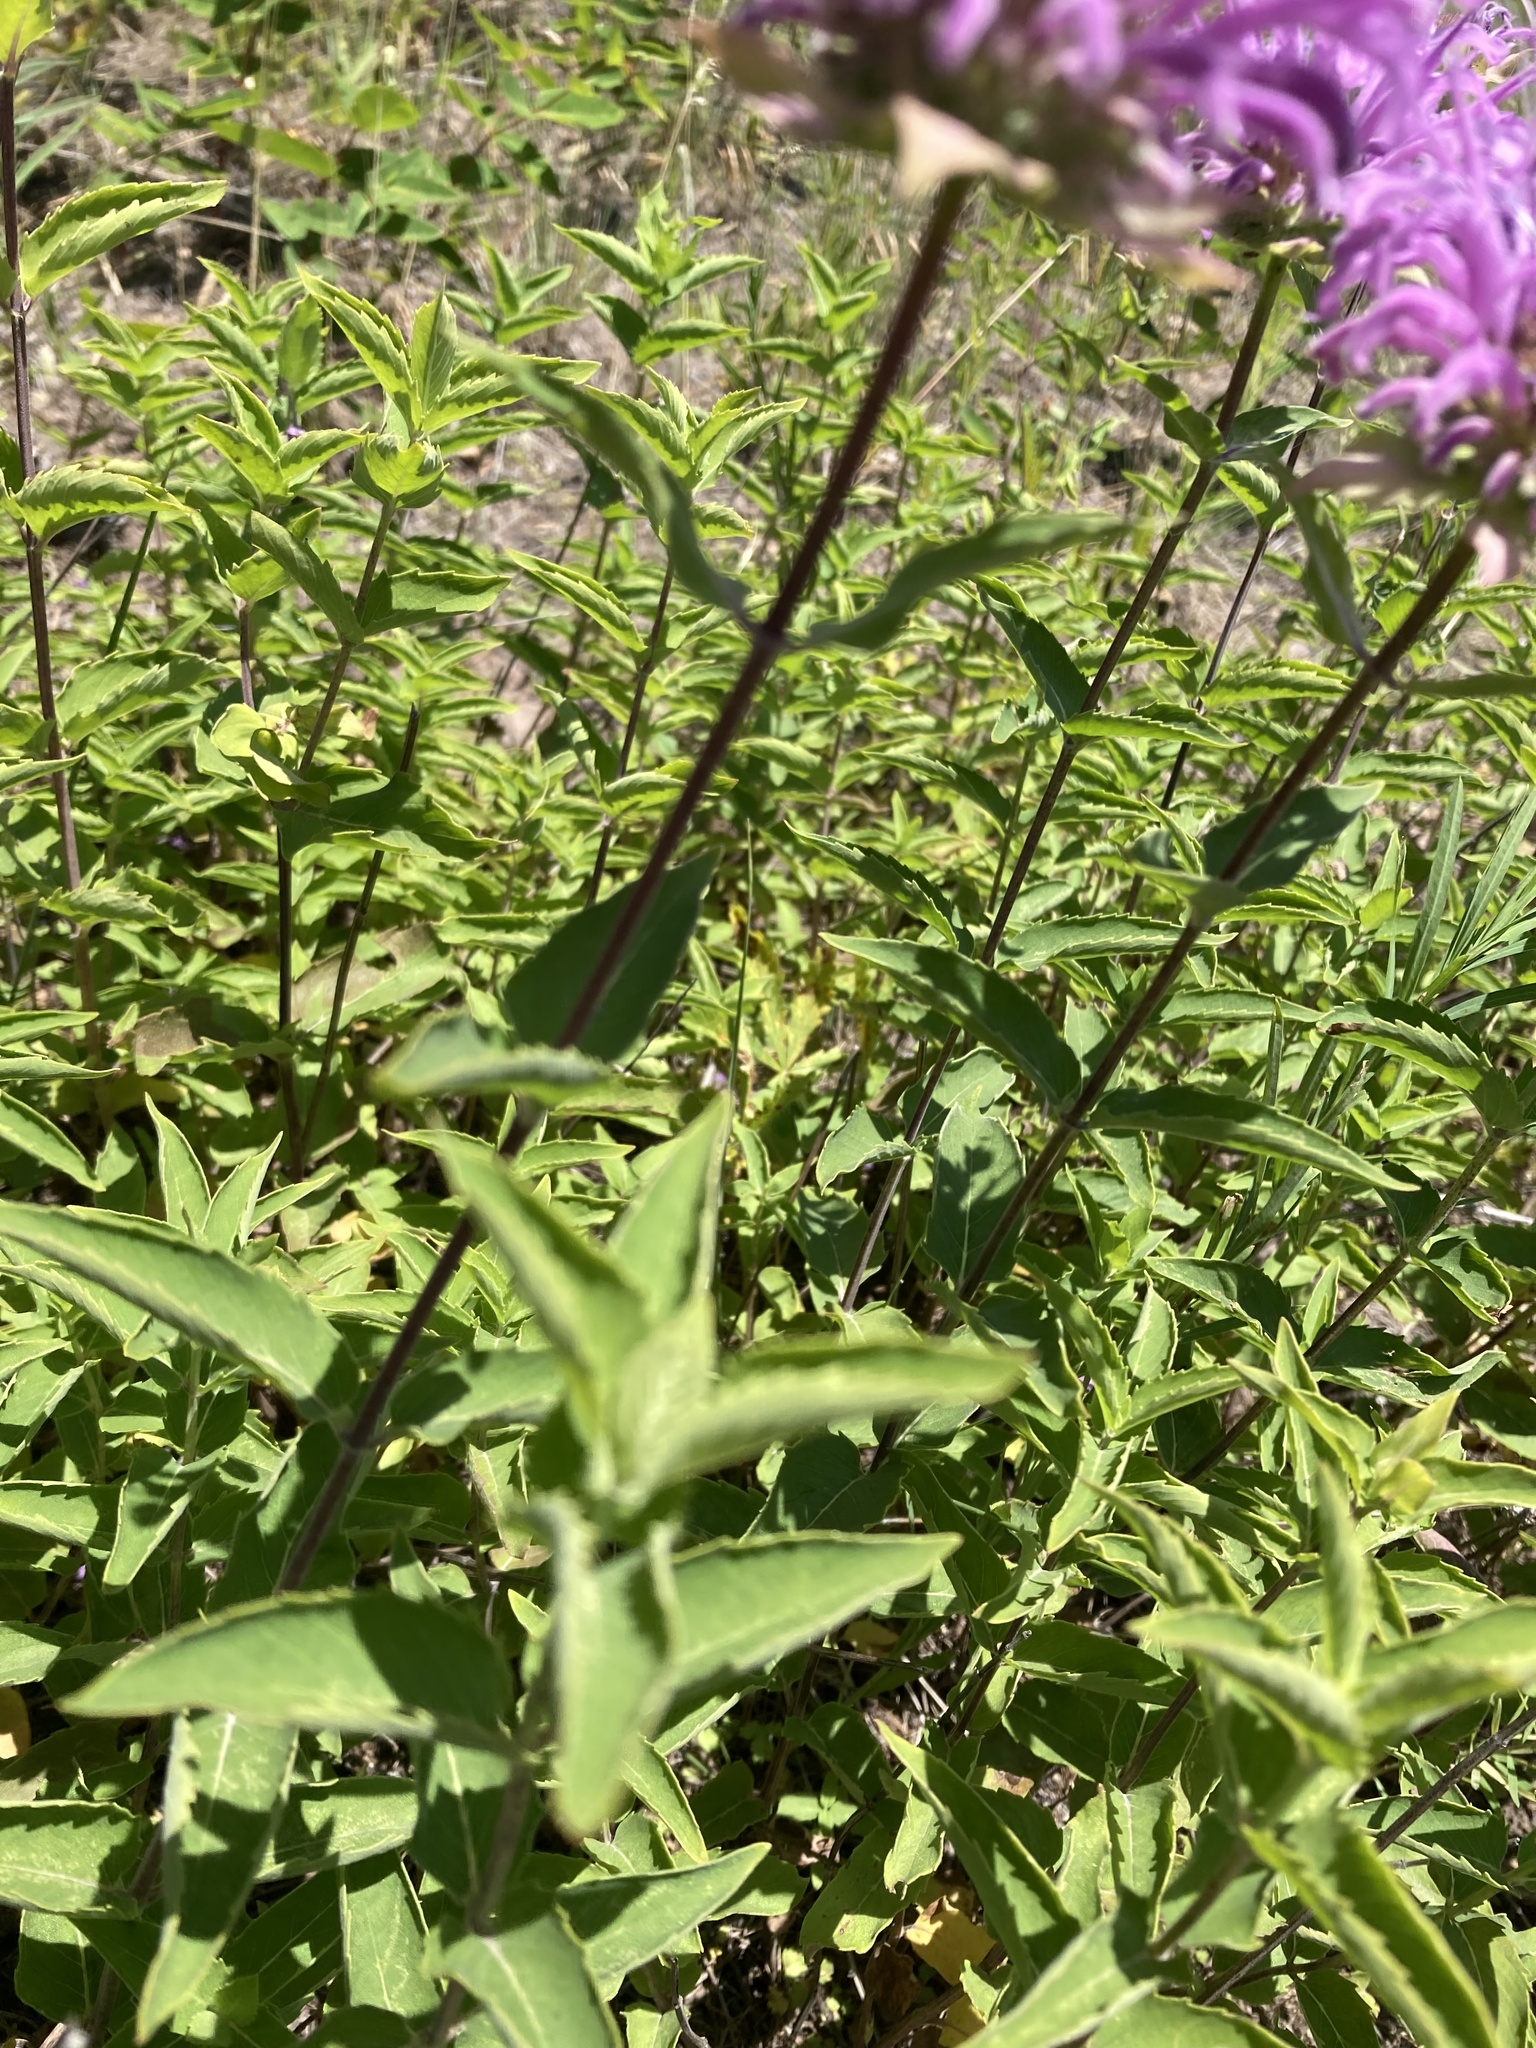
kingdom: Plantae
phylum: Tracheophyta
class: Magnoliopsida
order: Lamiales
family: Lamiaceae
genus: Monarda
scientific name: Monarda fistulosa
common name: Purple beebalm
